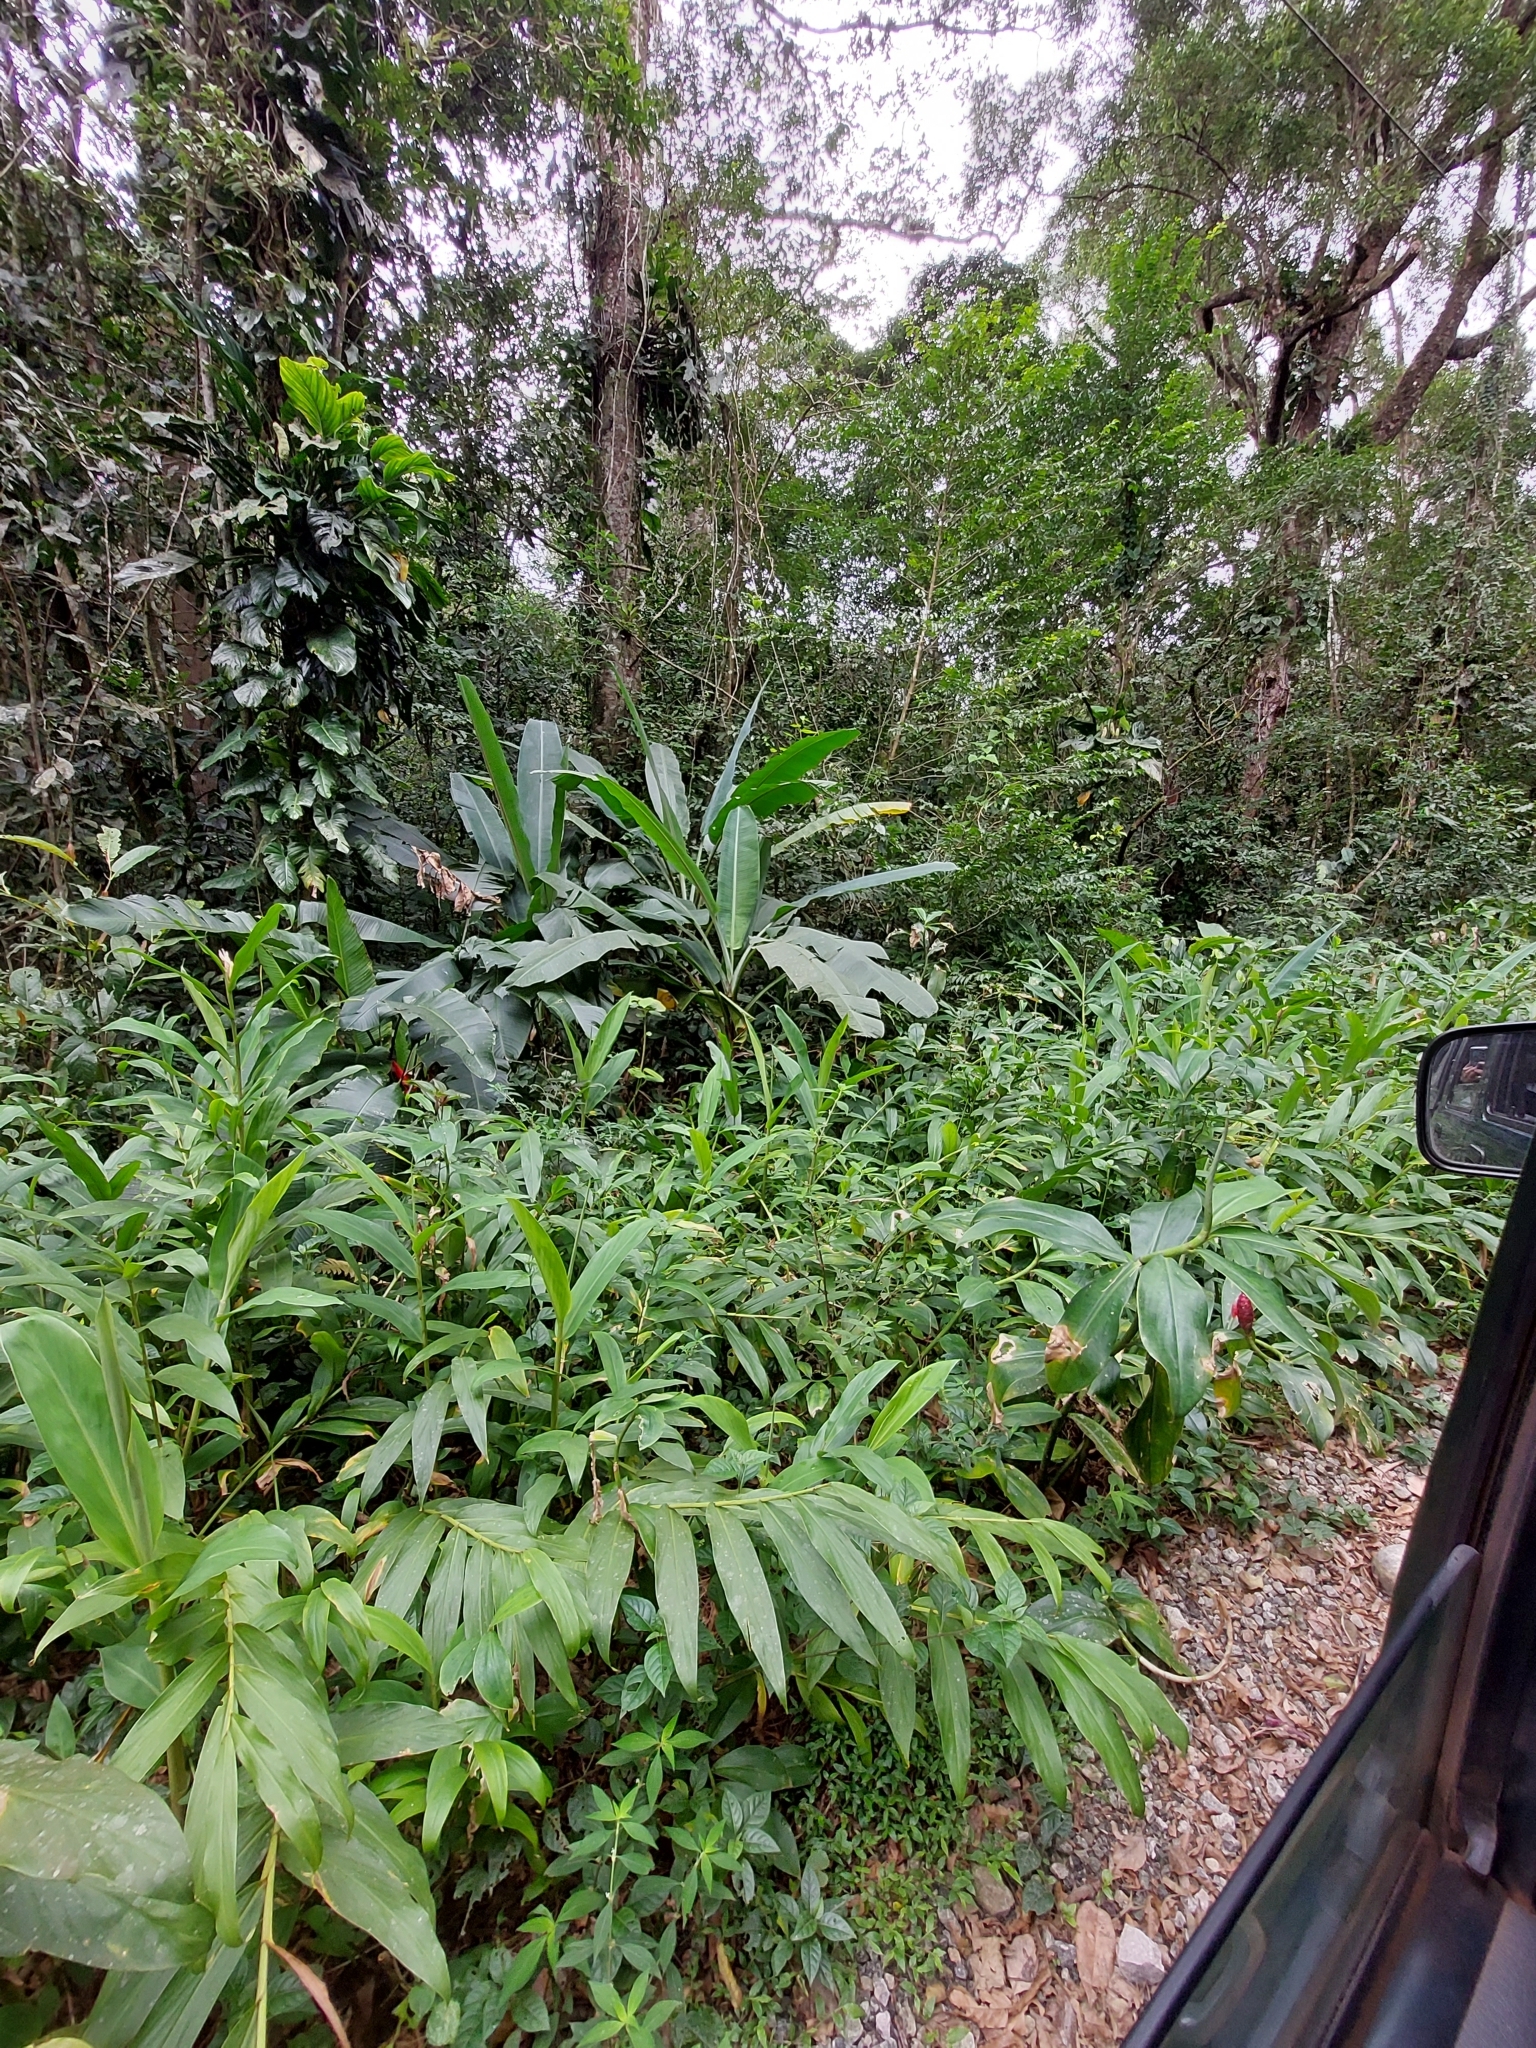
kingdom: Plantae
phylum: Tracheophyta
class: Liliopsida
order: Zingiberales
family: Zingiberaceae
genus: Hedychium
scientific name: Hedychium coronarium
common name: White garland-lily
